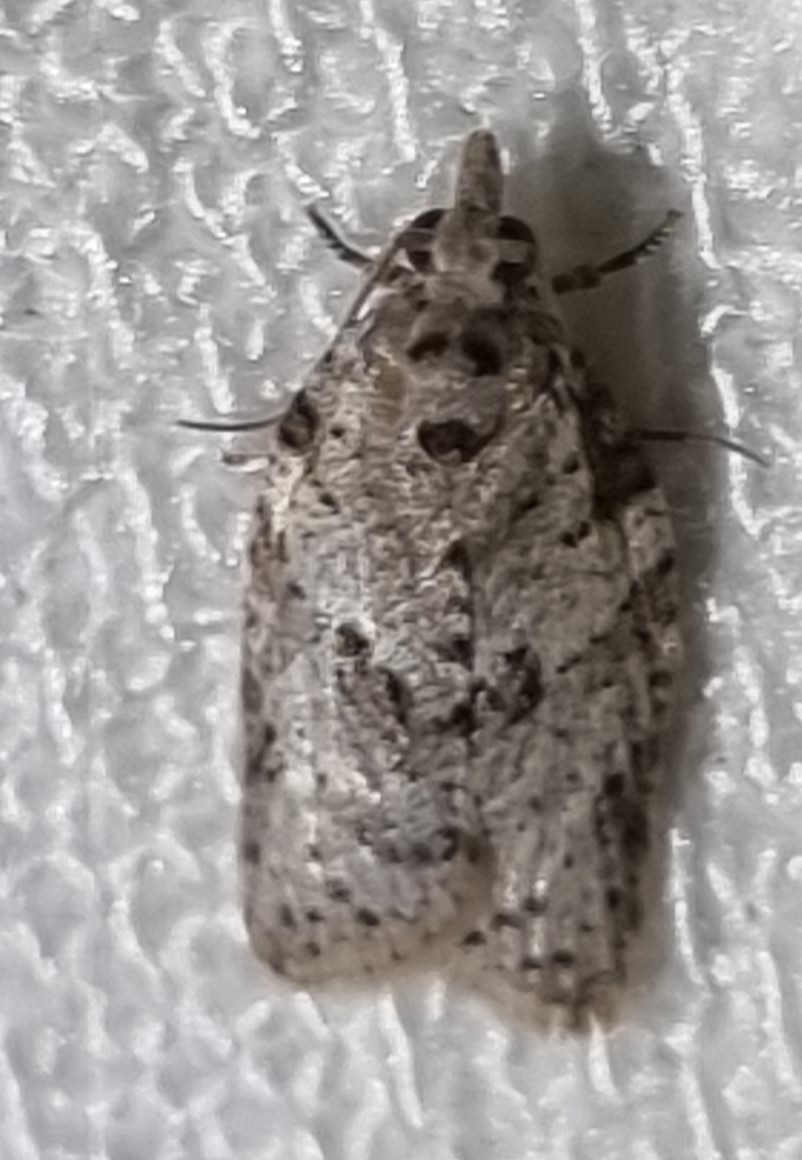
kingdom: Animalia
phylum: Arthropoda
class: Insecta
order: Lepidoptera
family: Tortricidae
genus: Isotenes
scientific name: Isotenes miserana
